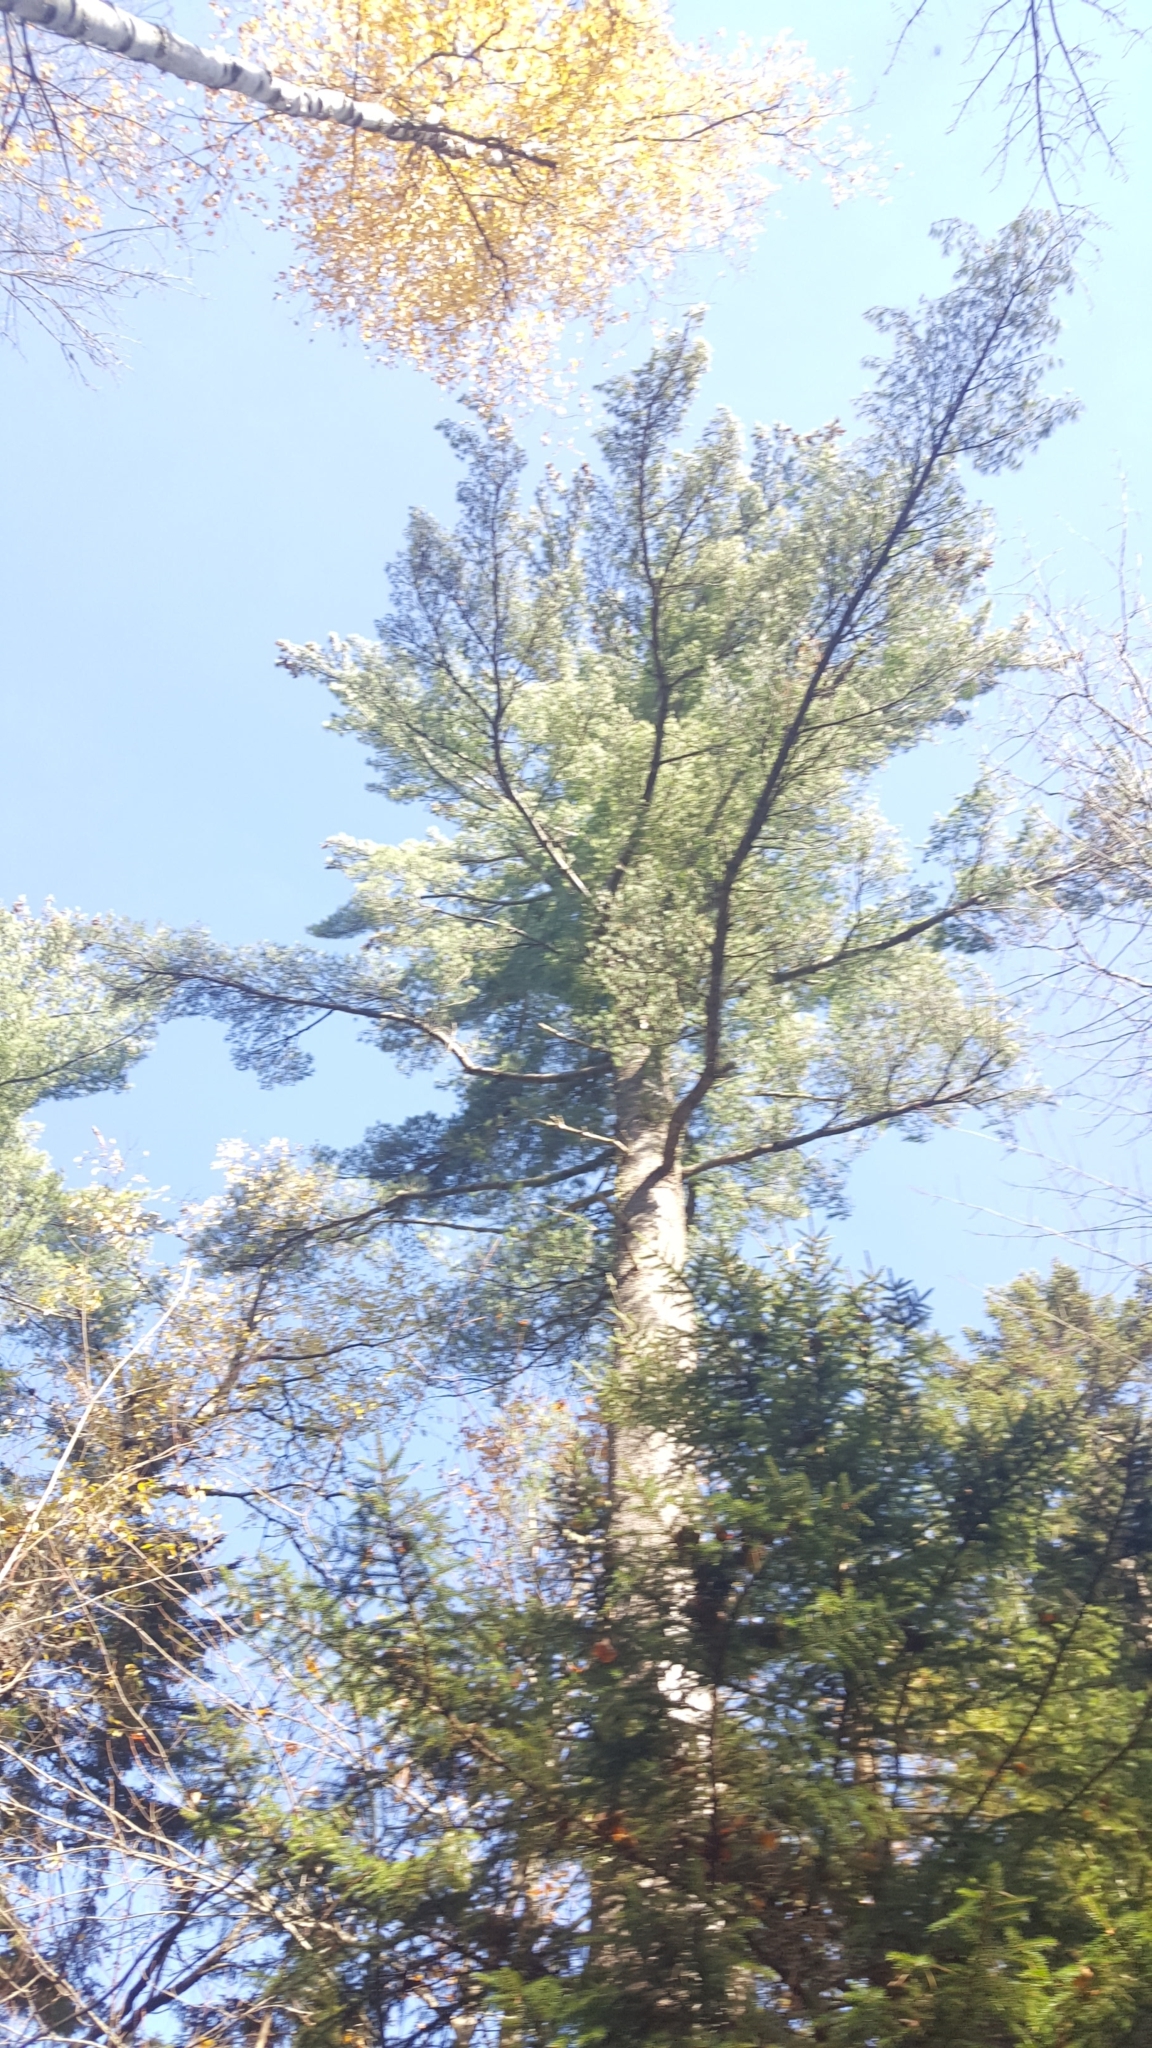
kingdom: Plantae
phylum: Tracheophyta
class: Pinopsida
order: Pinales
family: Pinaceae
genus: Pinus
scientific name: Pinus strobus
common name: Weymouth pine
